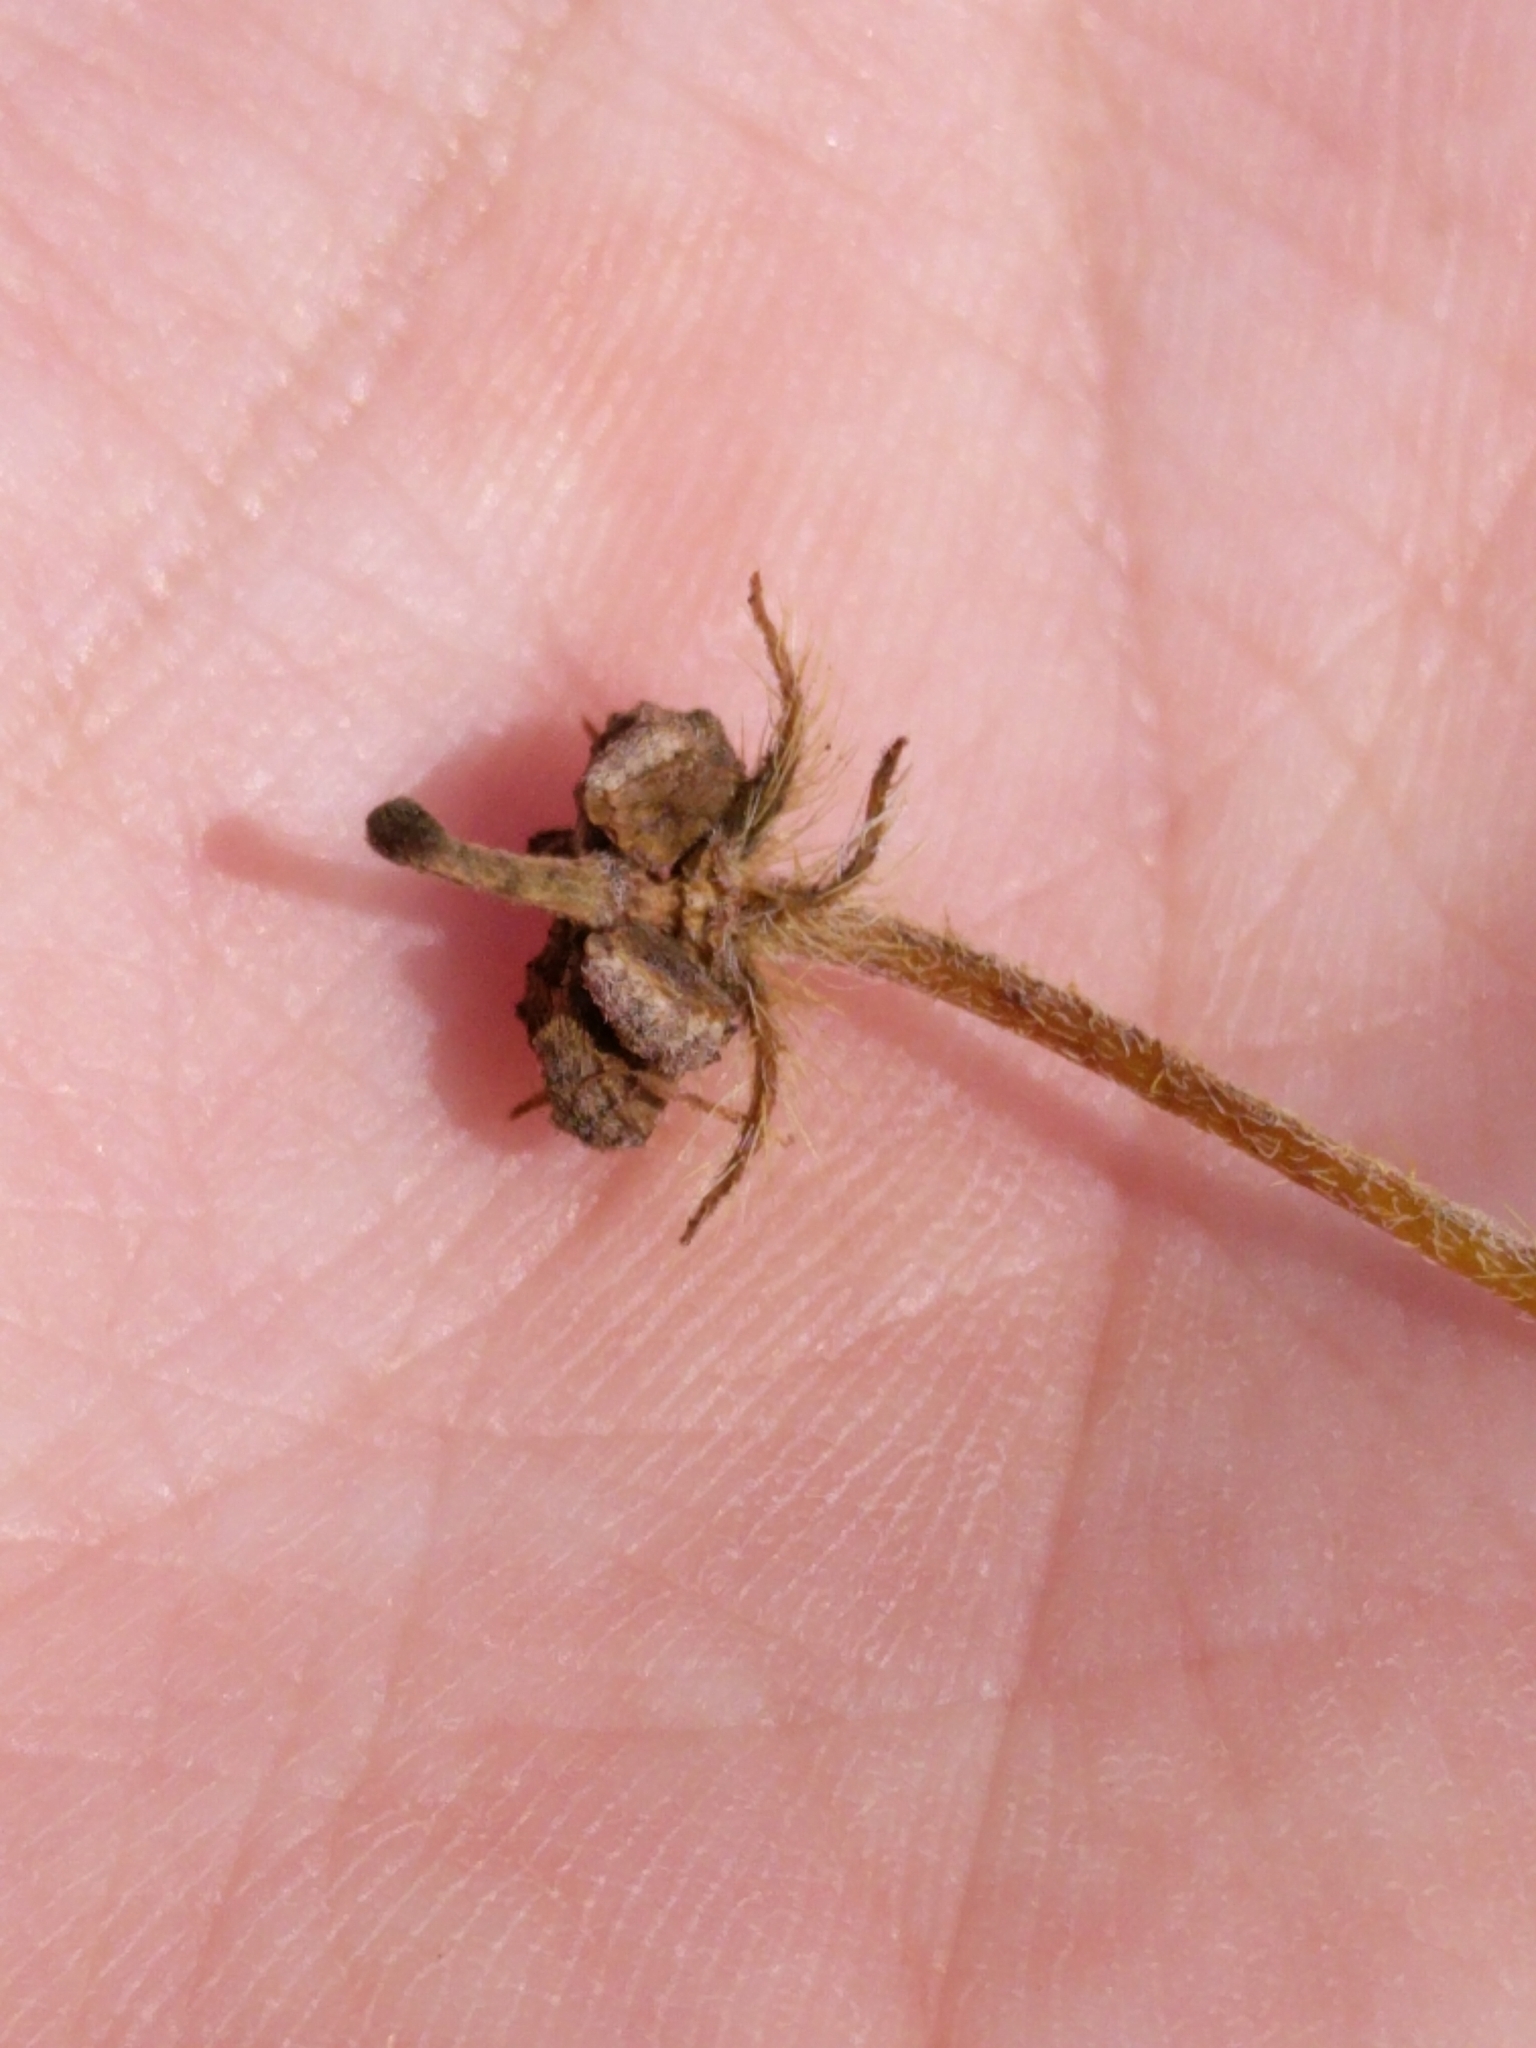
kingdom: Plantae
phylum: Tracheophyta
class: Magnoliopsida
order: Zygophyllales
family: Zygophyllaceae
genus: Kallstroemia
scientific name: Kallstroemia parviflora
